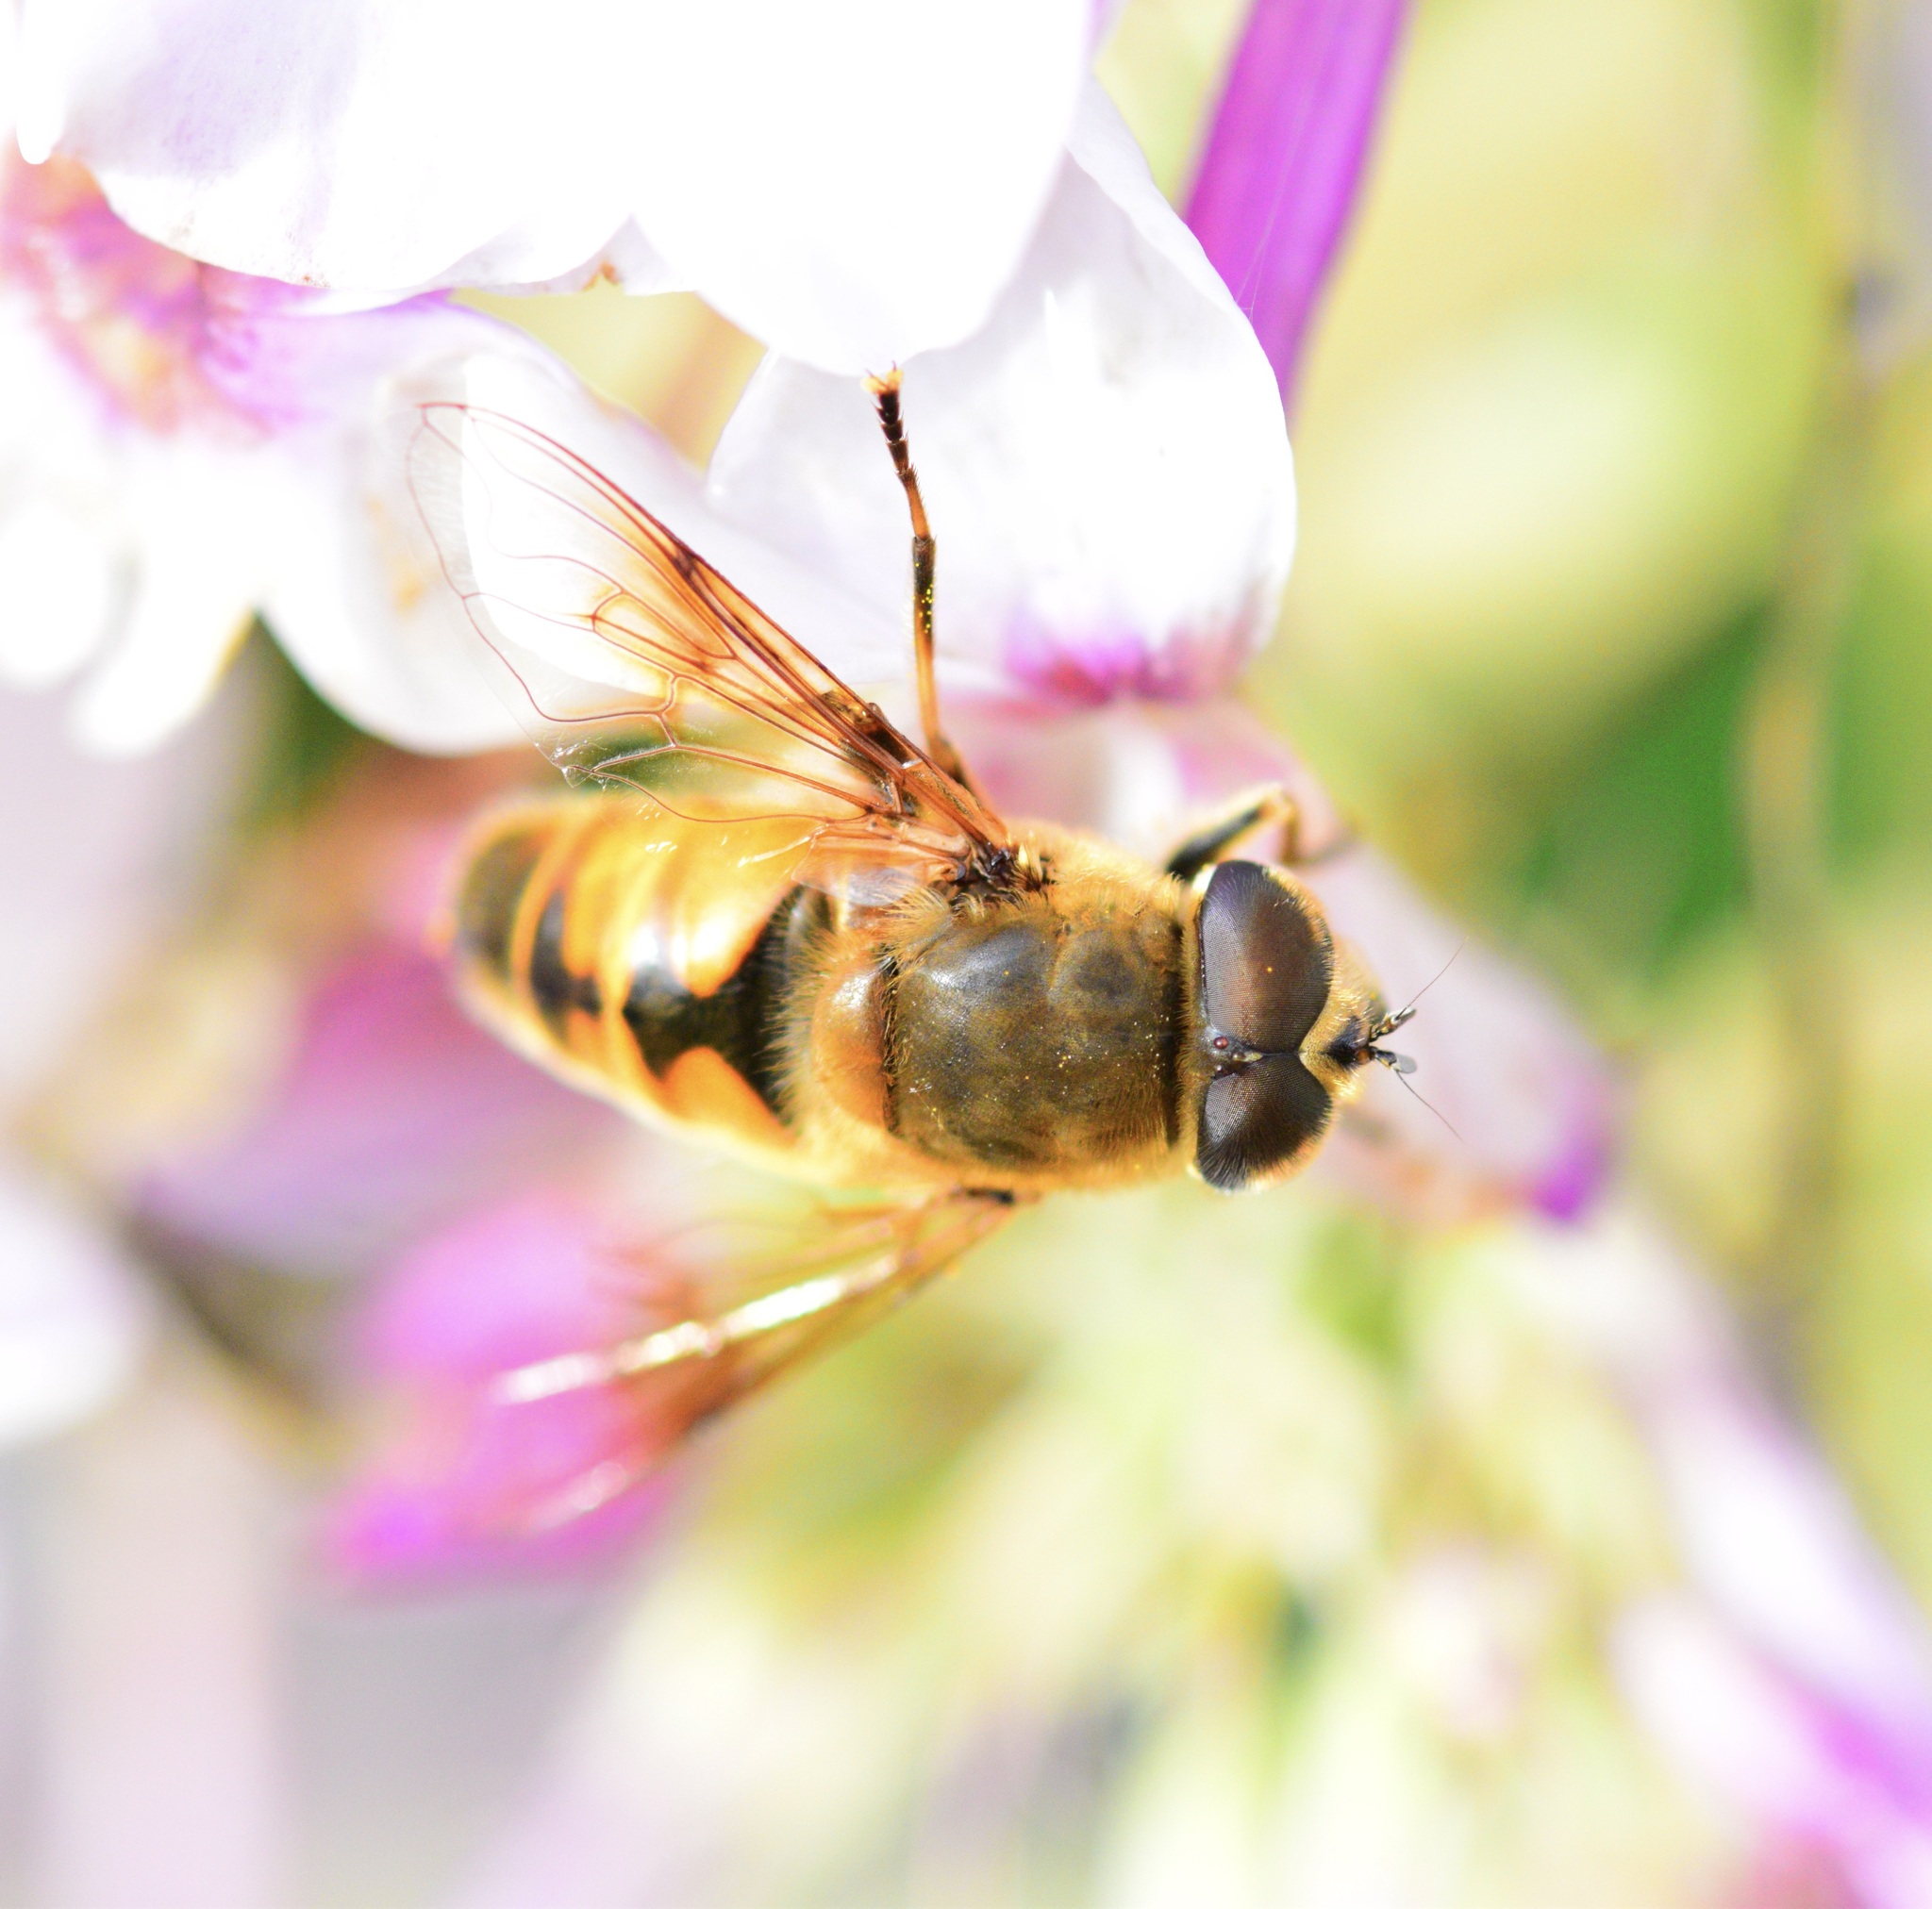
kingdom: Animalia
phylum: Arthropoda
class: Insecta
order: Diptera
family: Syrphidae
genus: Eristalis
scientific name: Eristalis tenax
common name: Drone fly
